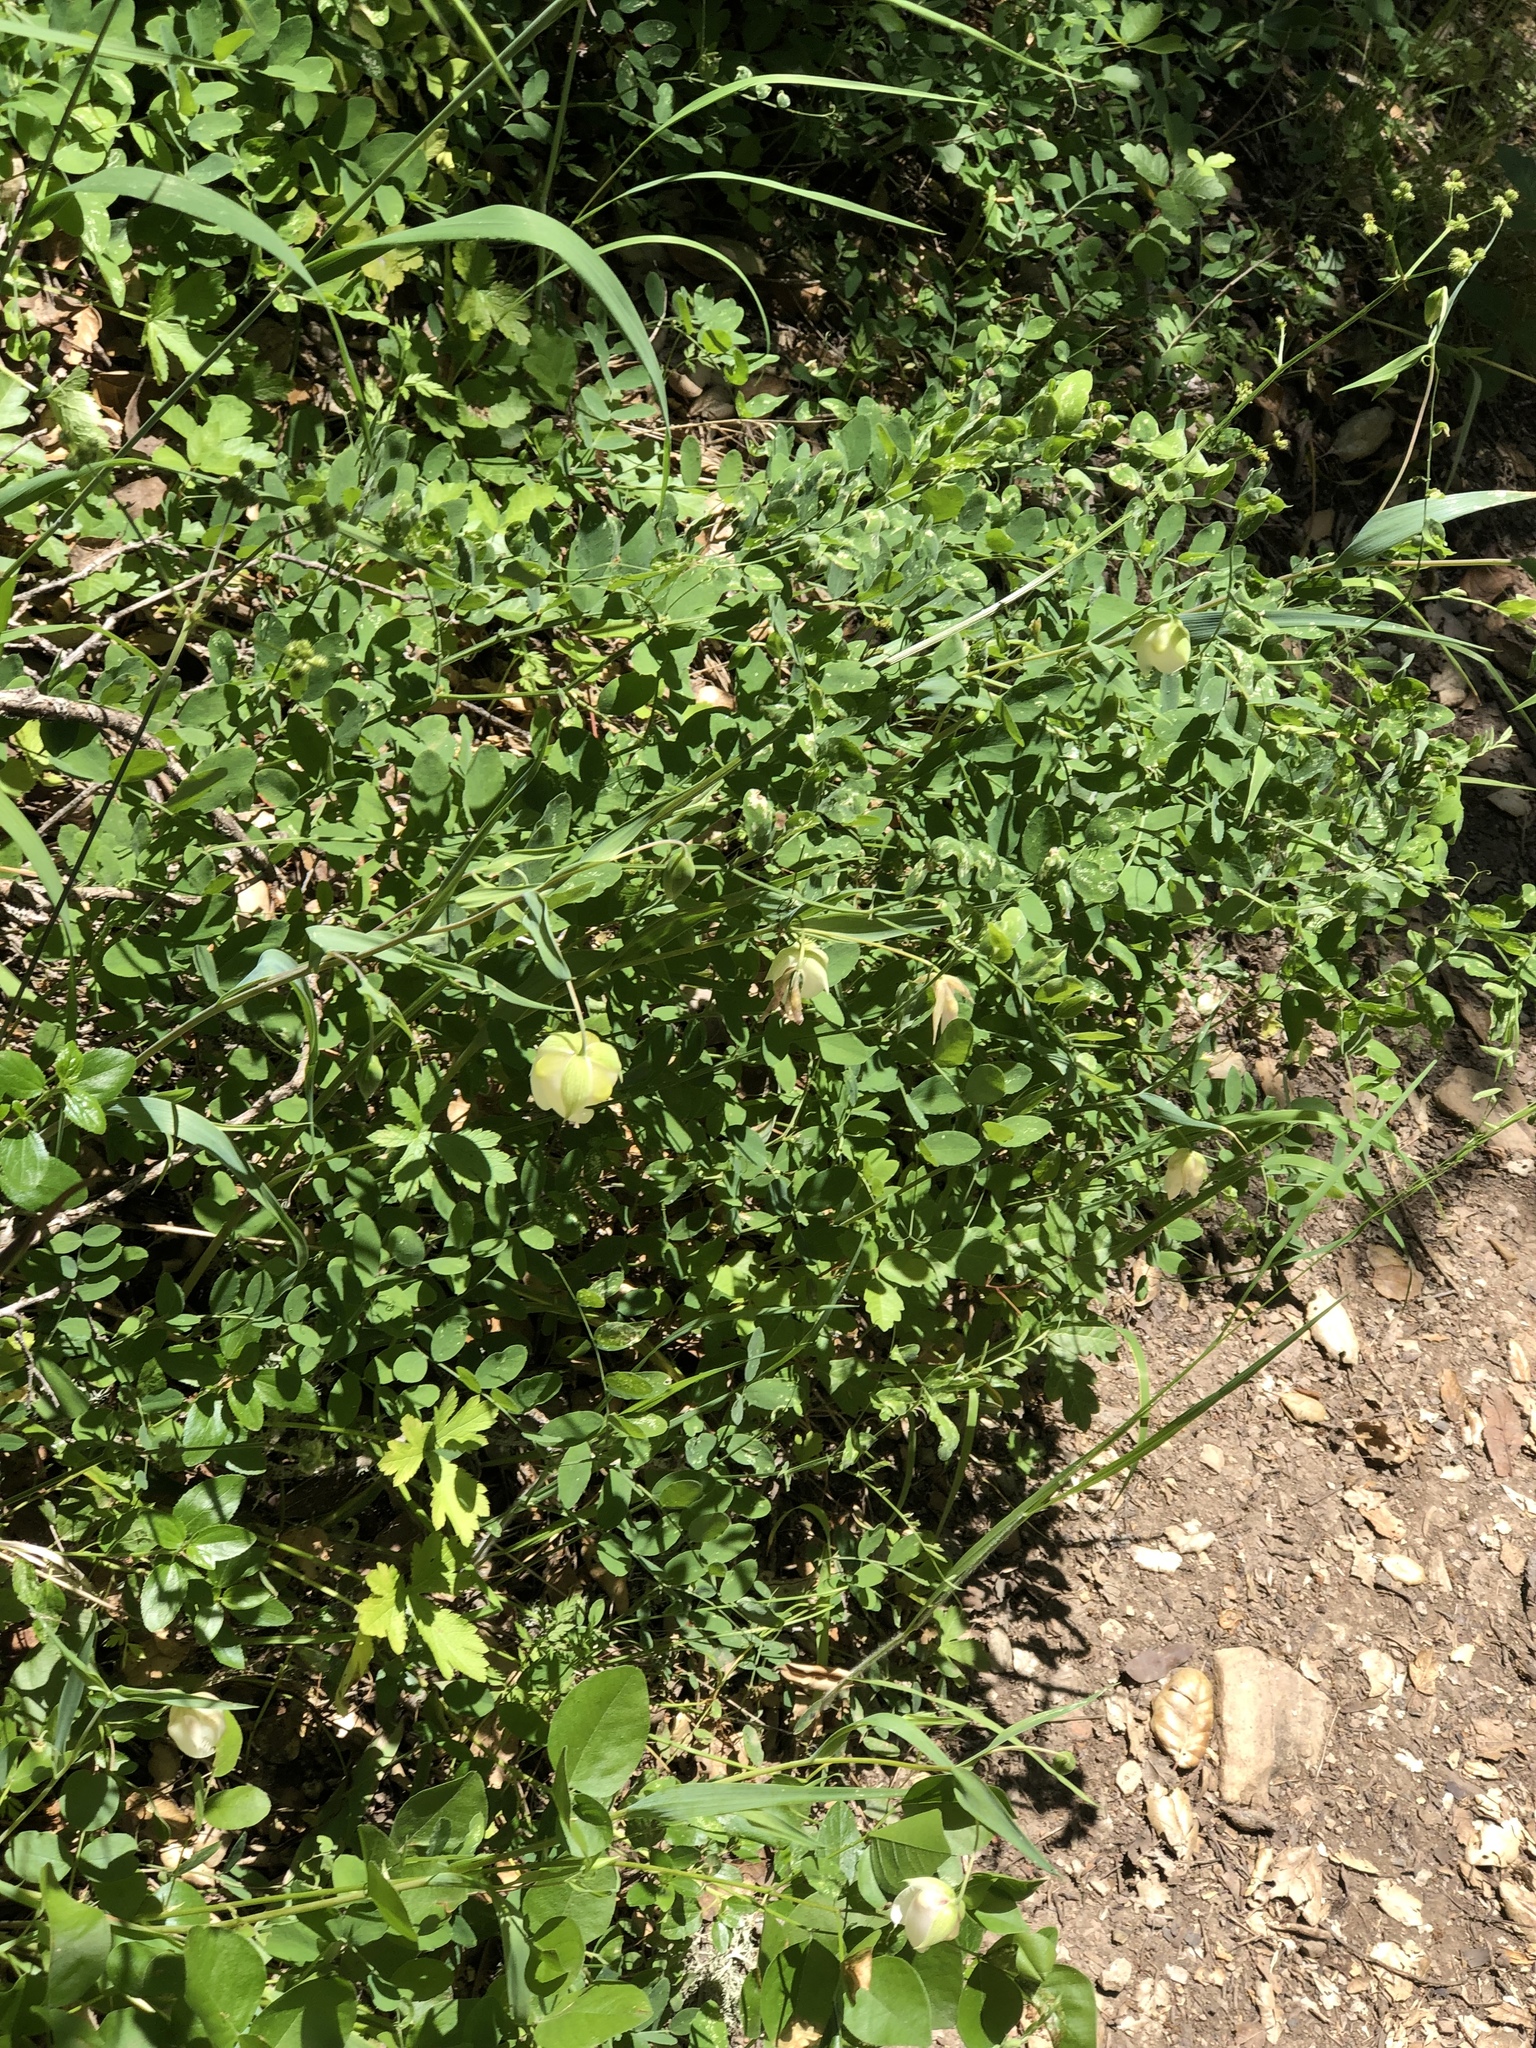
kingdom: Plantae
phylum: Tracheophyta
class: Liliopsida
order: Liliales
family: Liliaceae
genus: Calochortus
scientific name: Calochortus albus
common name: Fairy-lantern
